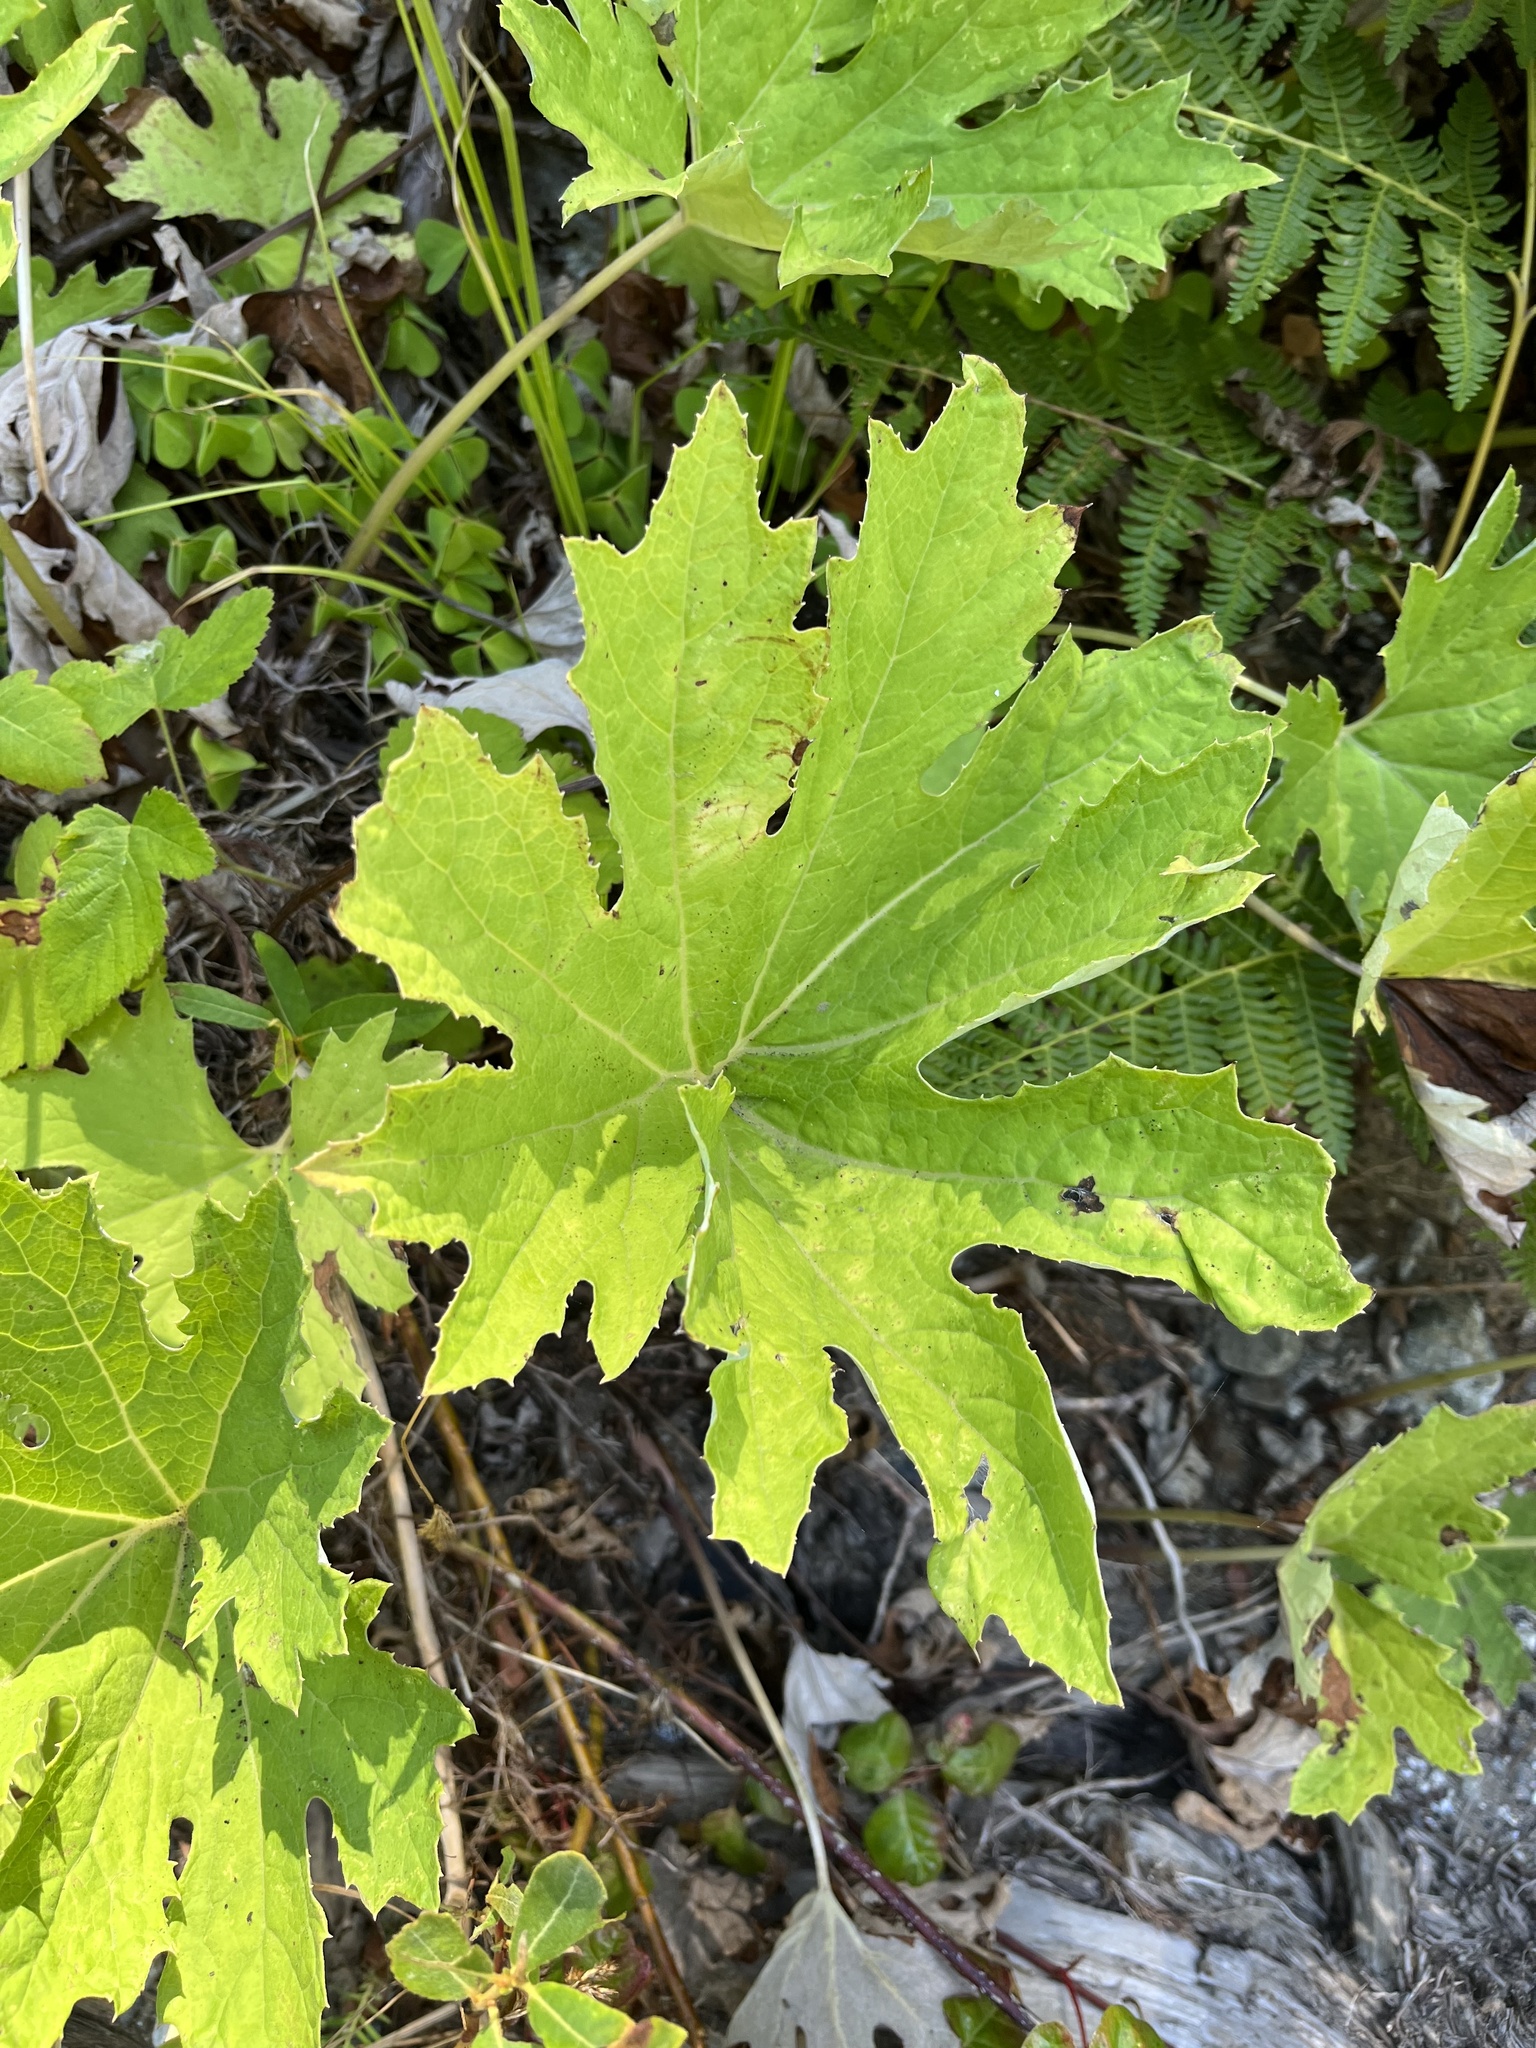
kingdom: Plantae
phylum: Tracheophyta
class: Magnoliopsida
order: Asterales
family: Asteraceae
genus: Petasites
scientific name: Petasites frigidus
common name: Arctic butterbur
